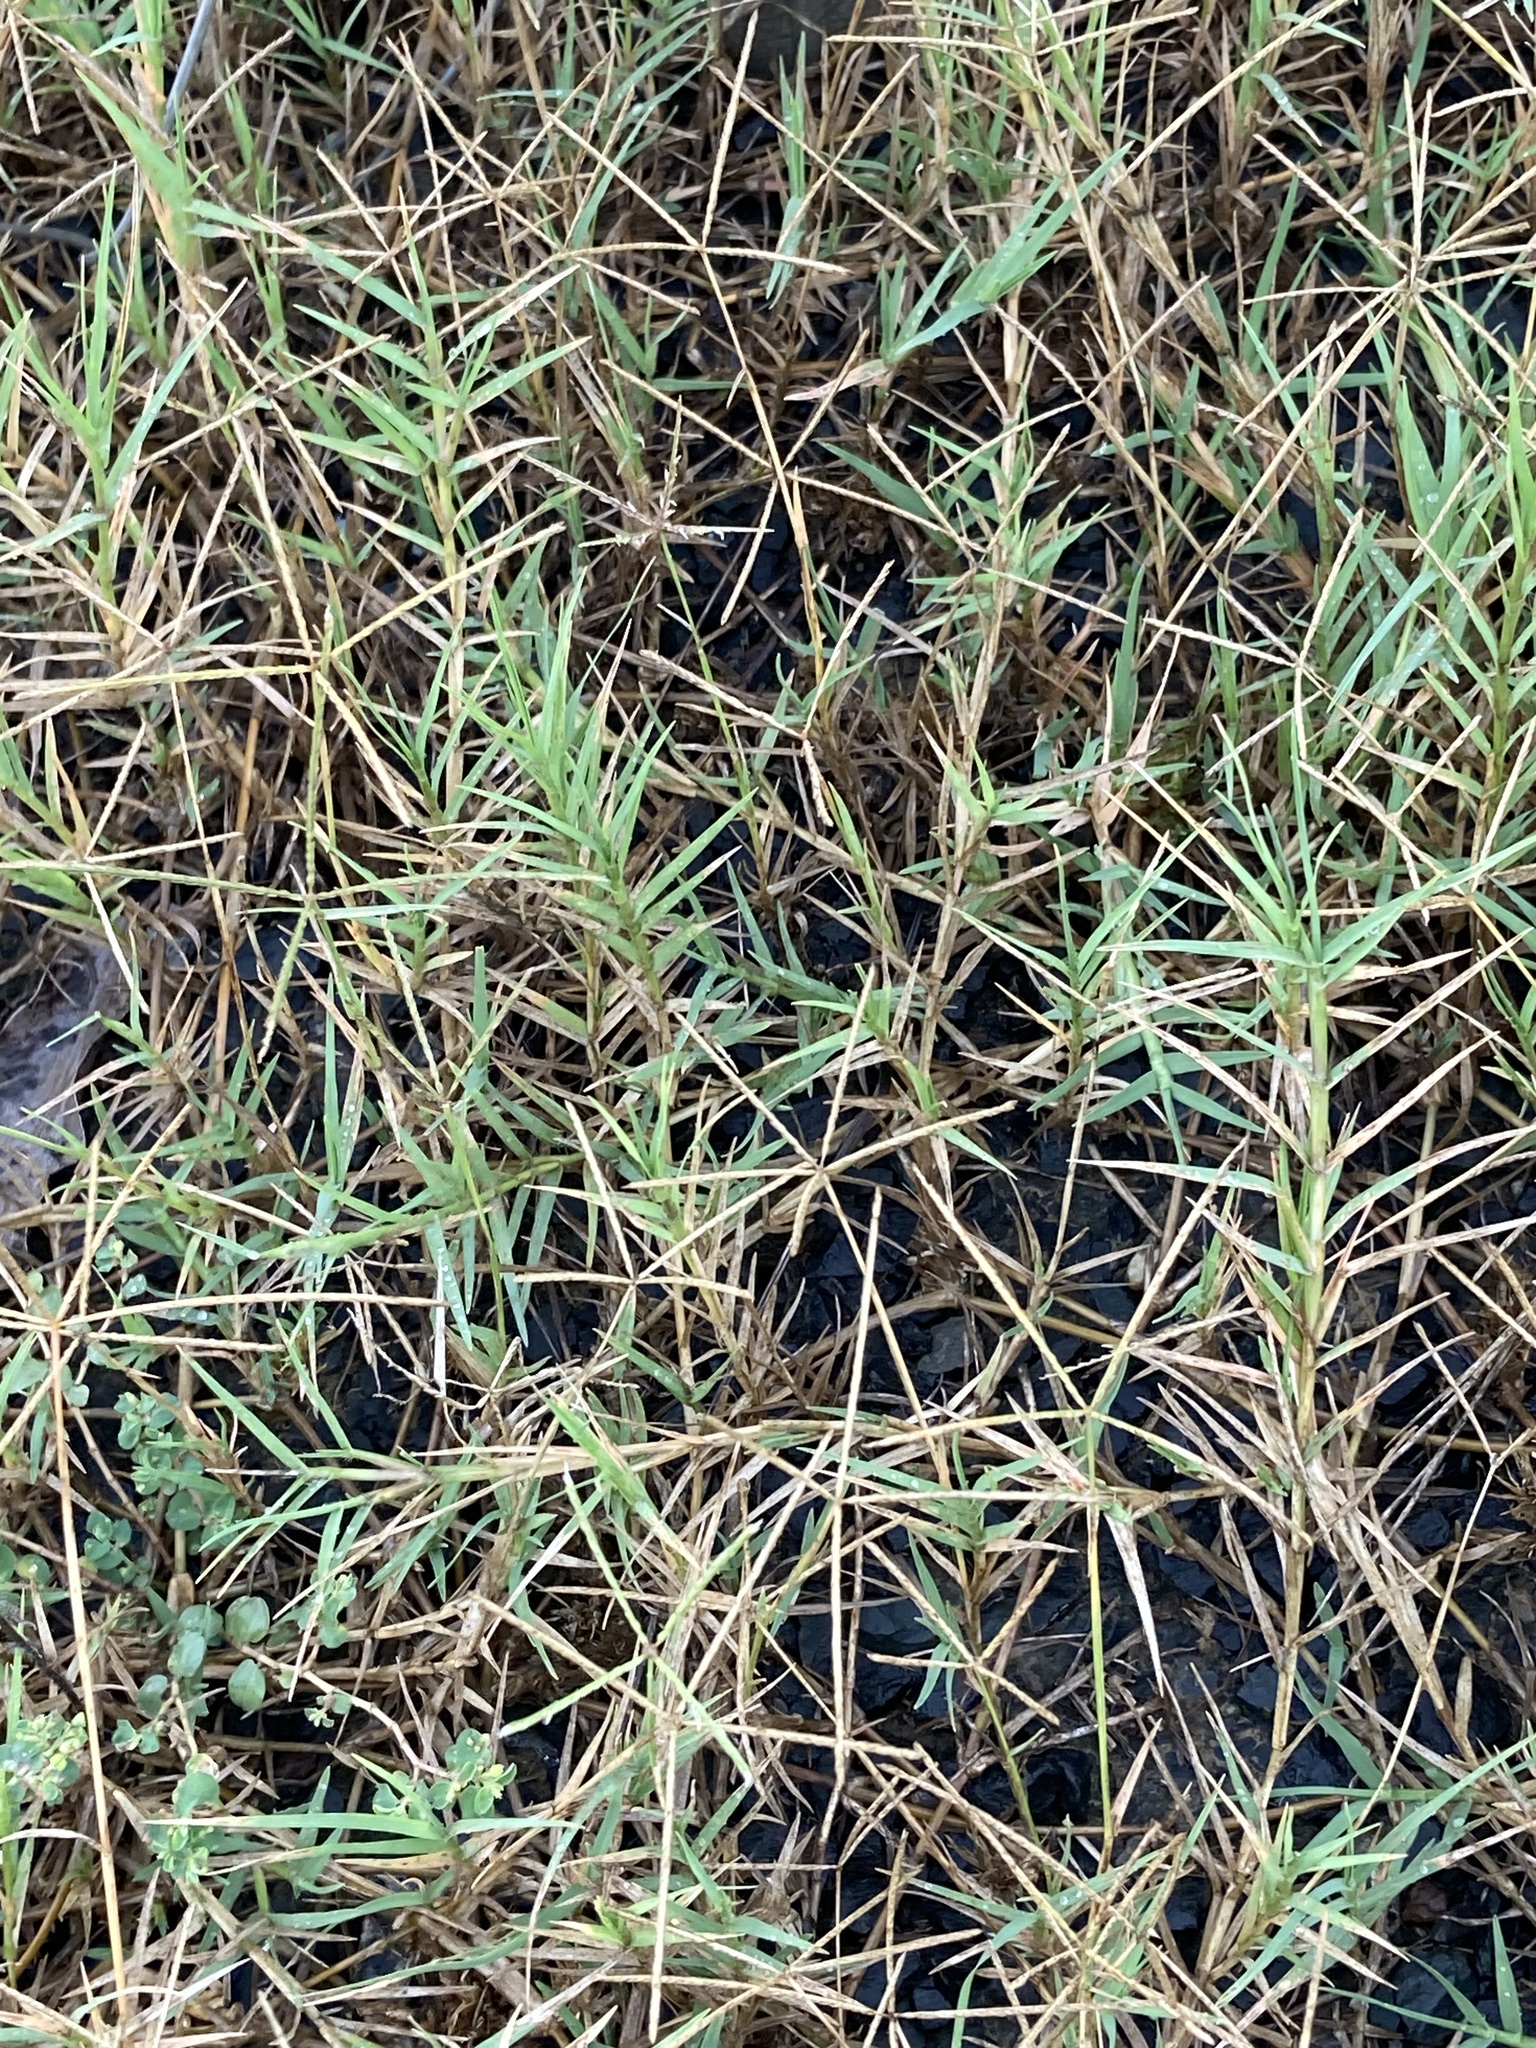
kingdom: Plantae
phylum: Tracheophyta
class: Liliopsida
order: Poales
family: Poaceae
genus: Cynodon
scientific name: Cynodon dactylon
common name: Bermuda grass
